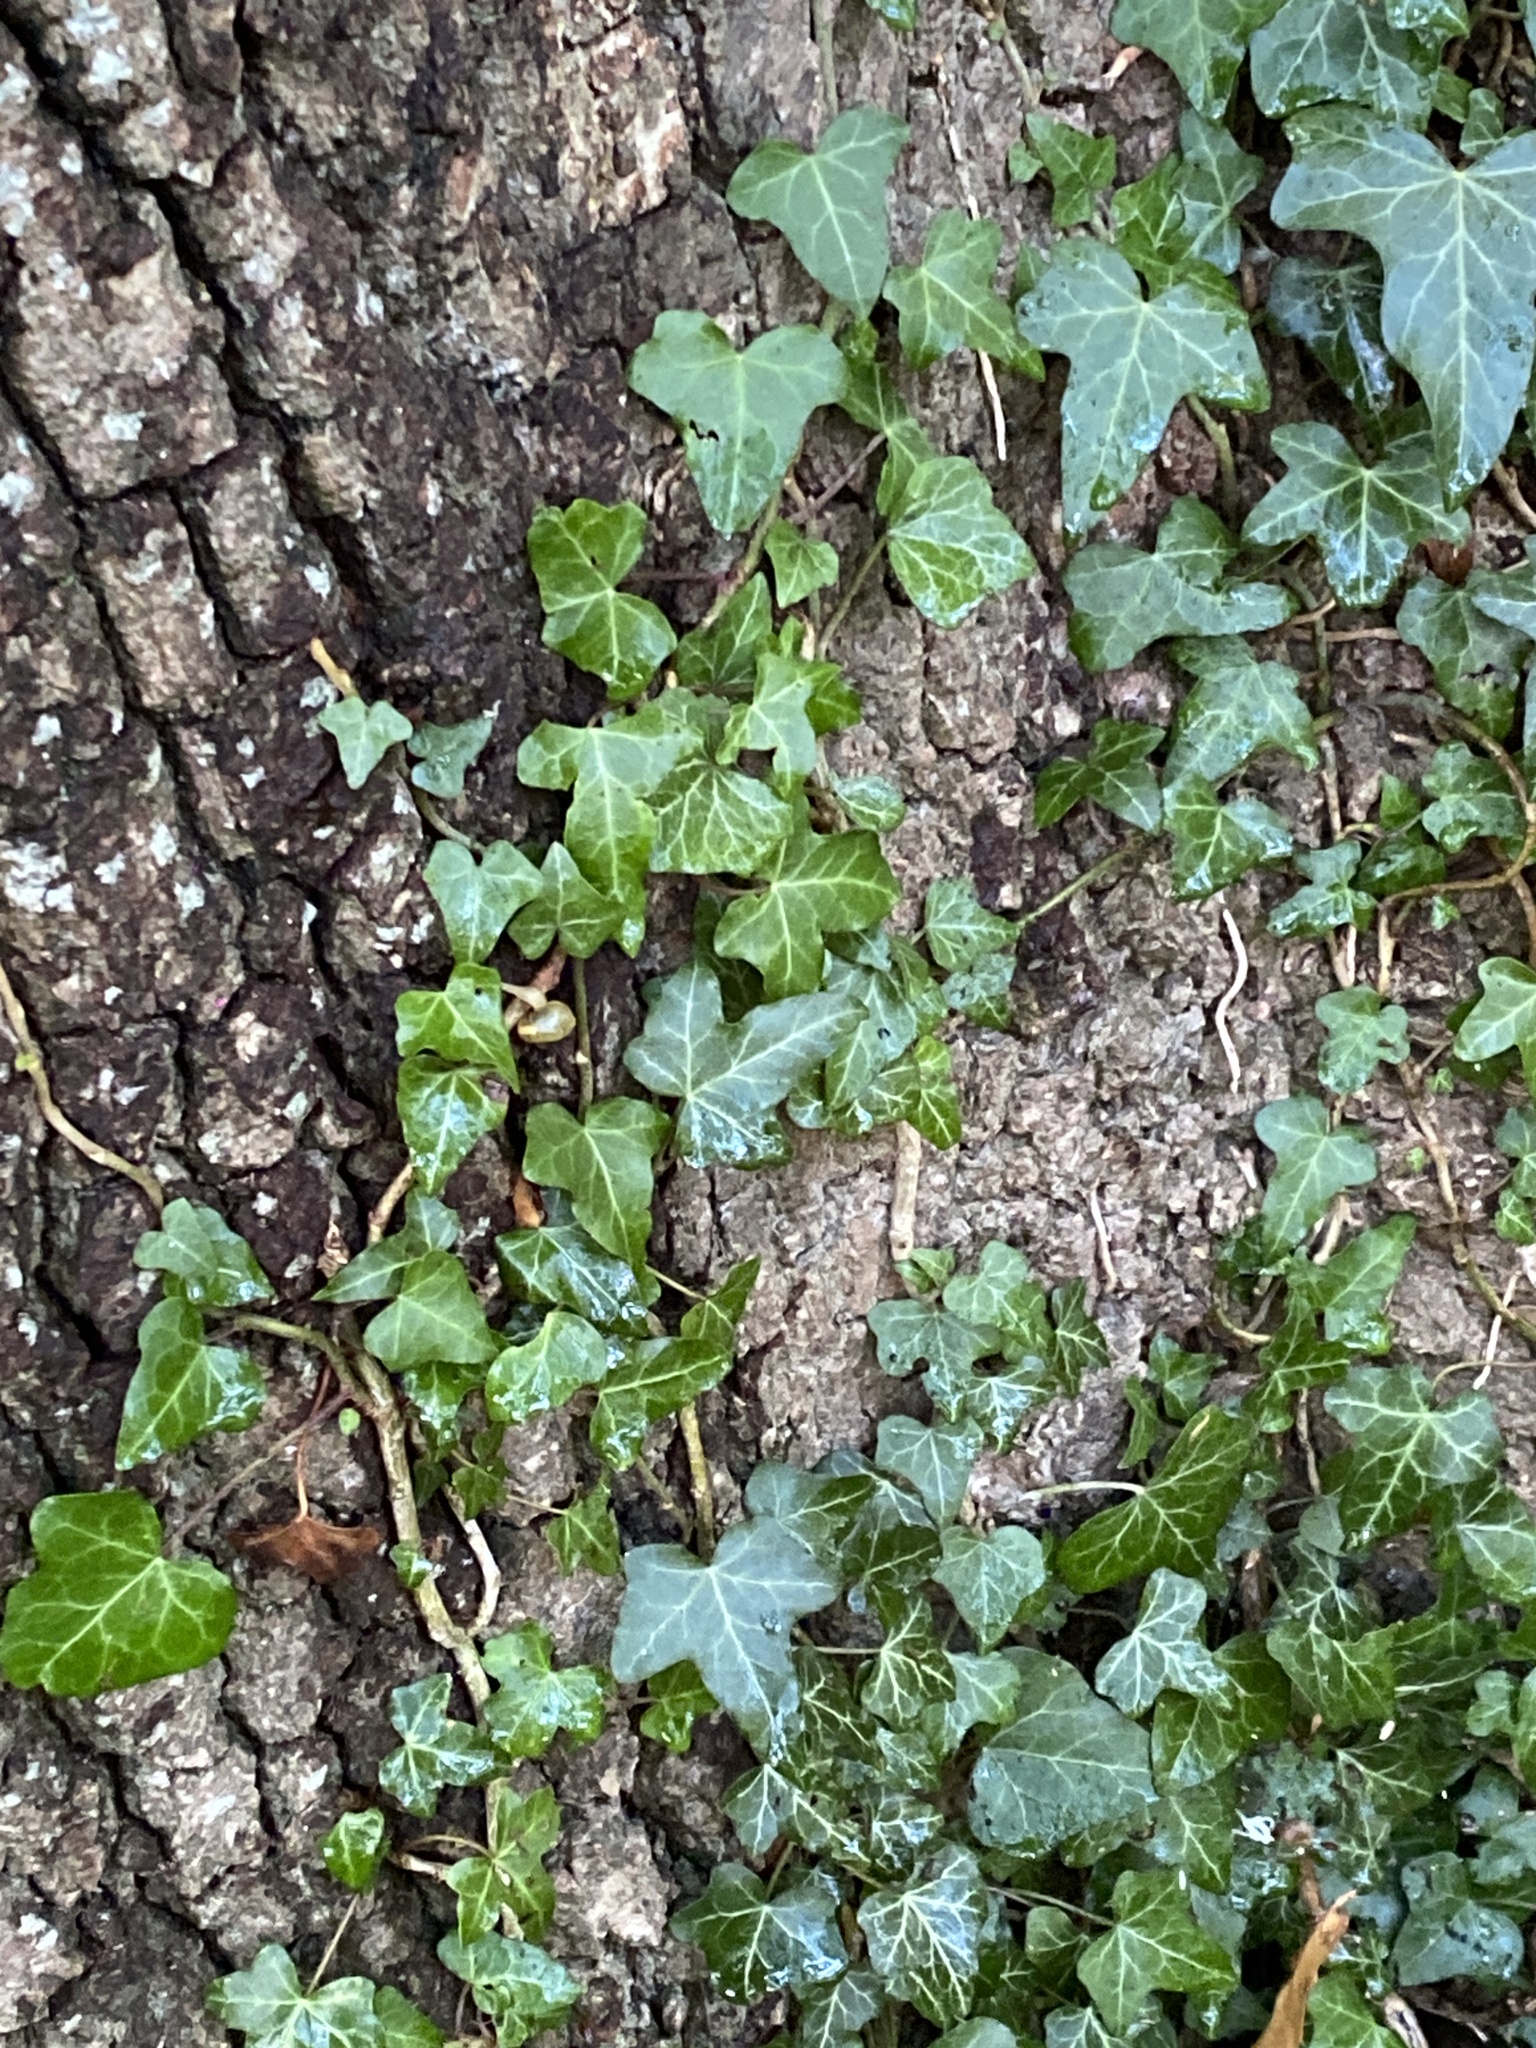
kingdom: Plantae
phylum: Tracheophyta
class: Magnoliopsida
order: Apiales
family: Araliaceae
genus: Hedera
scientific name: Hedera helix
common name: Ivy
